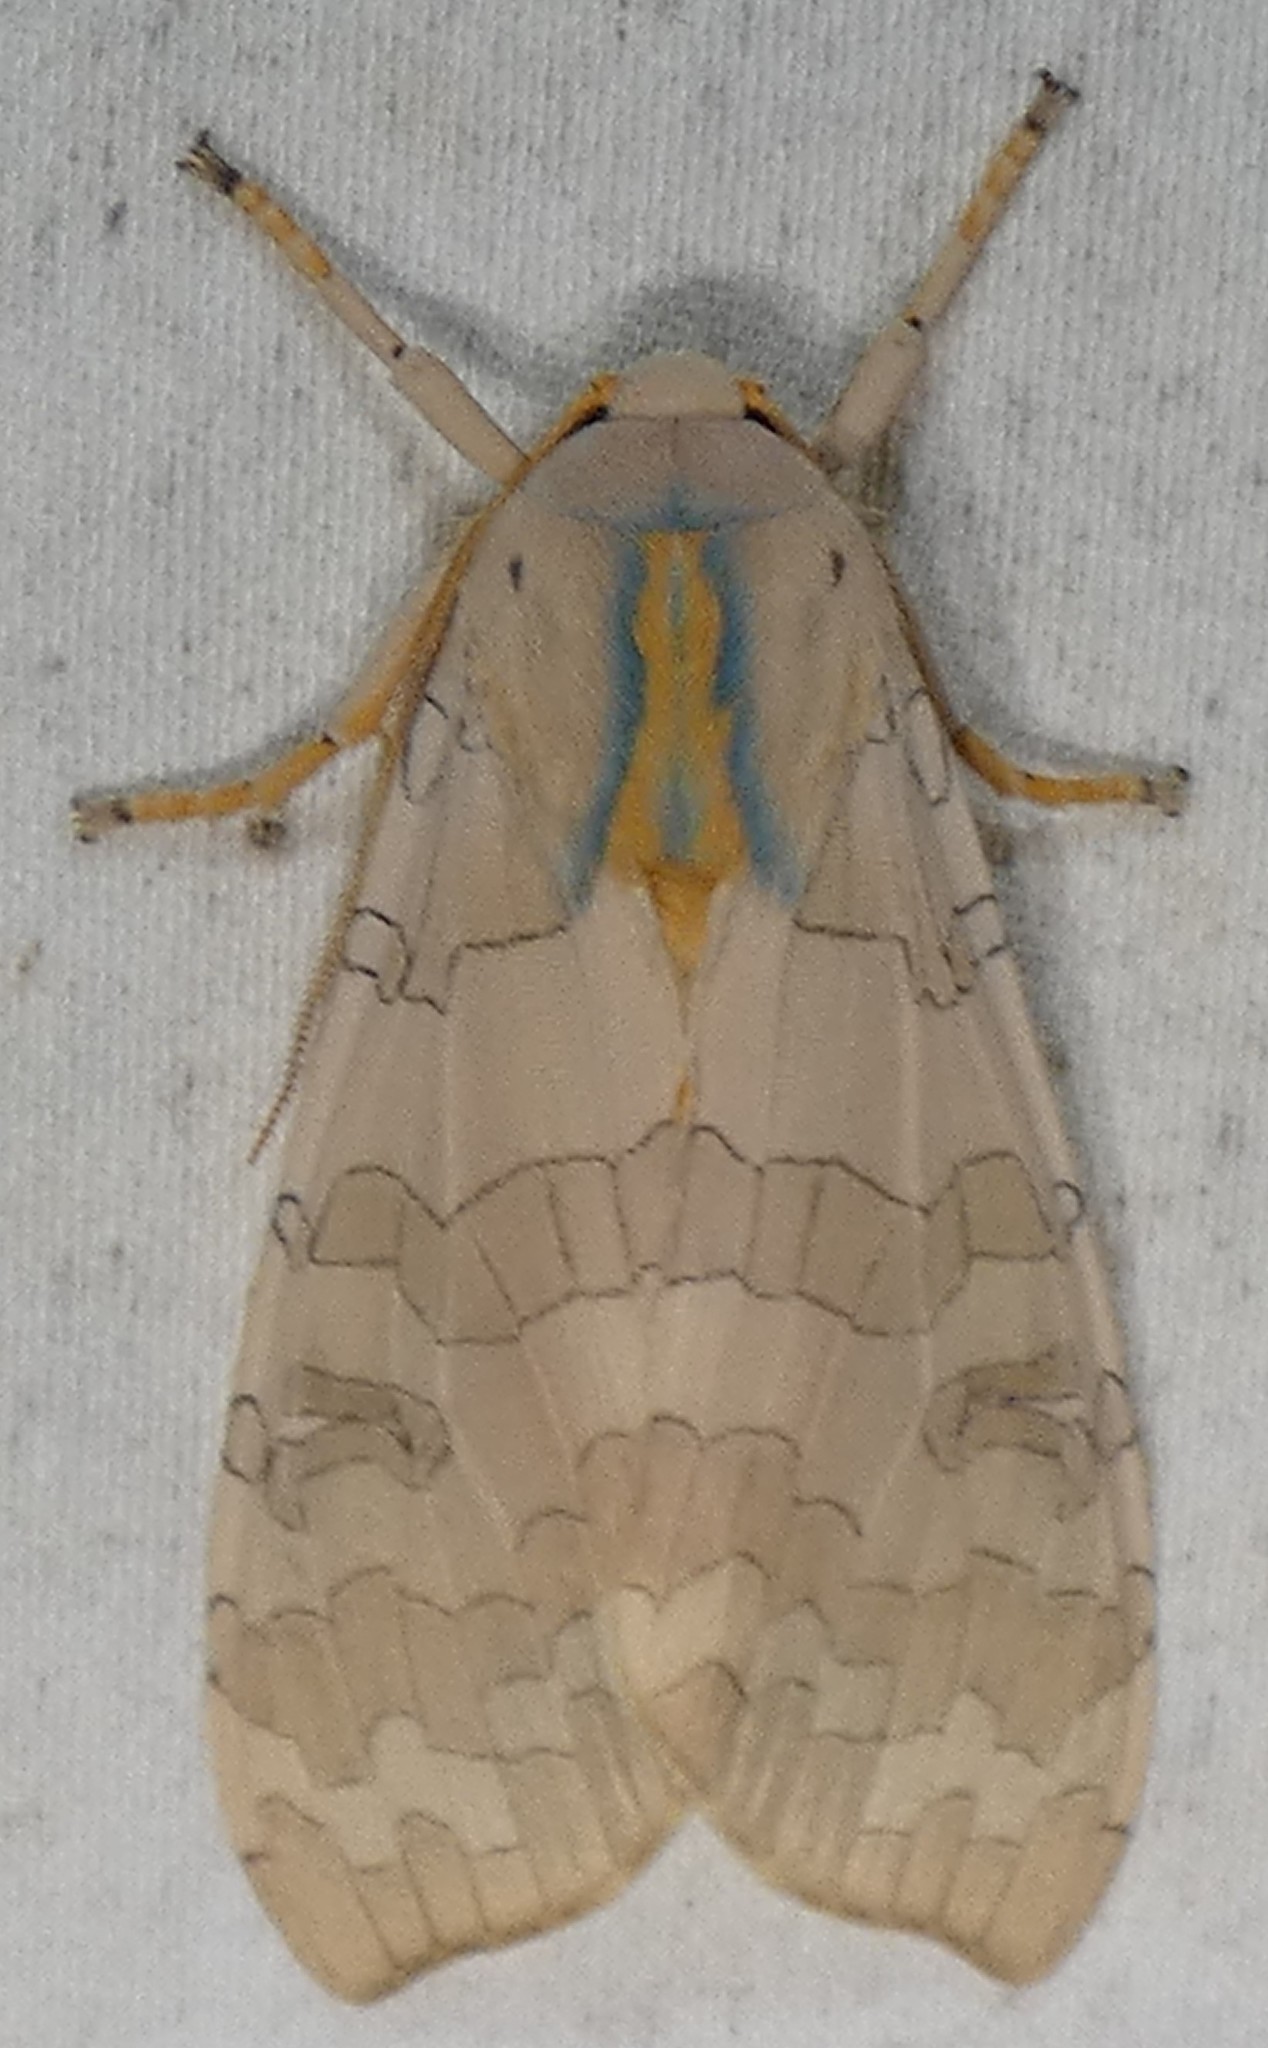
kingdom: Animalia
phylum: Arthropoda
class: Insecta
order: Lepidoptera
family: Erebidae
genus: Halysidota
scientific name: Halysidota
